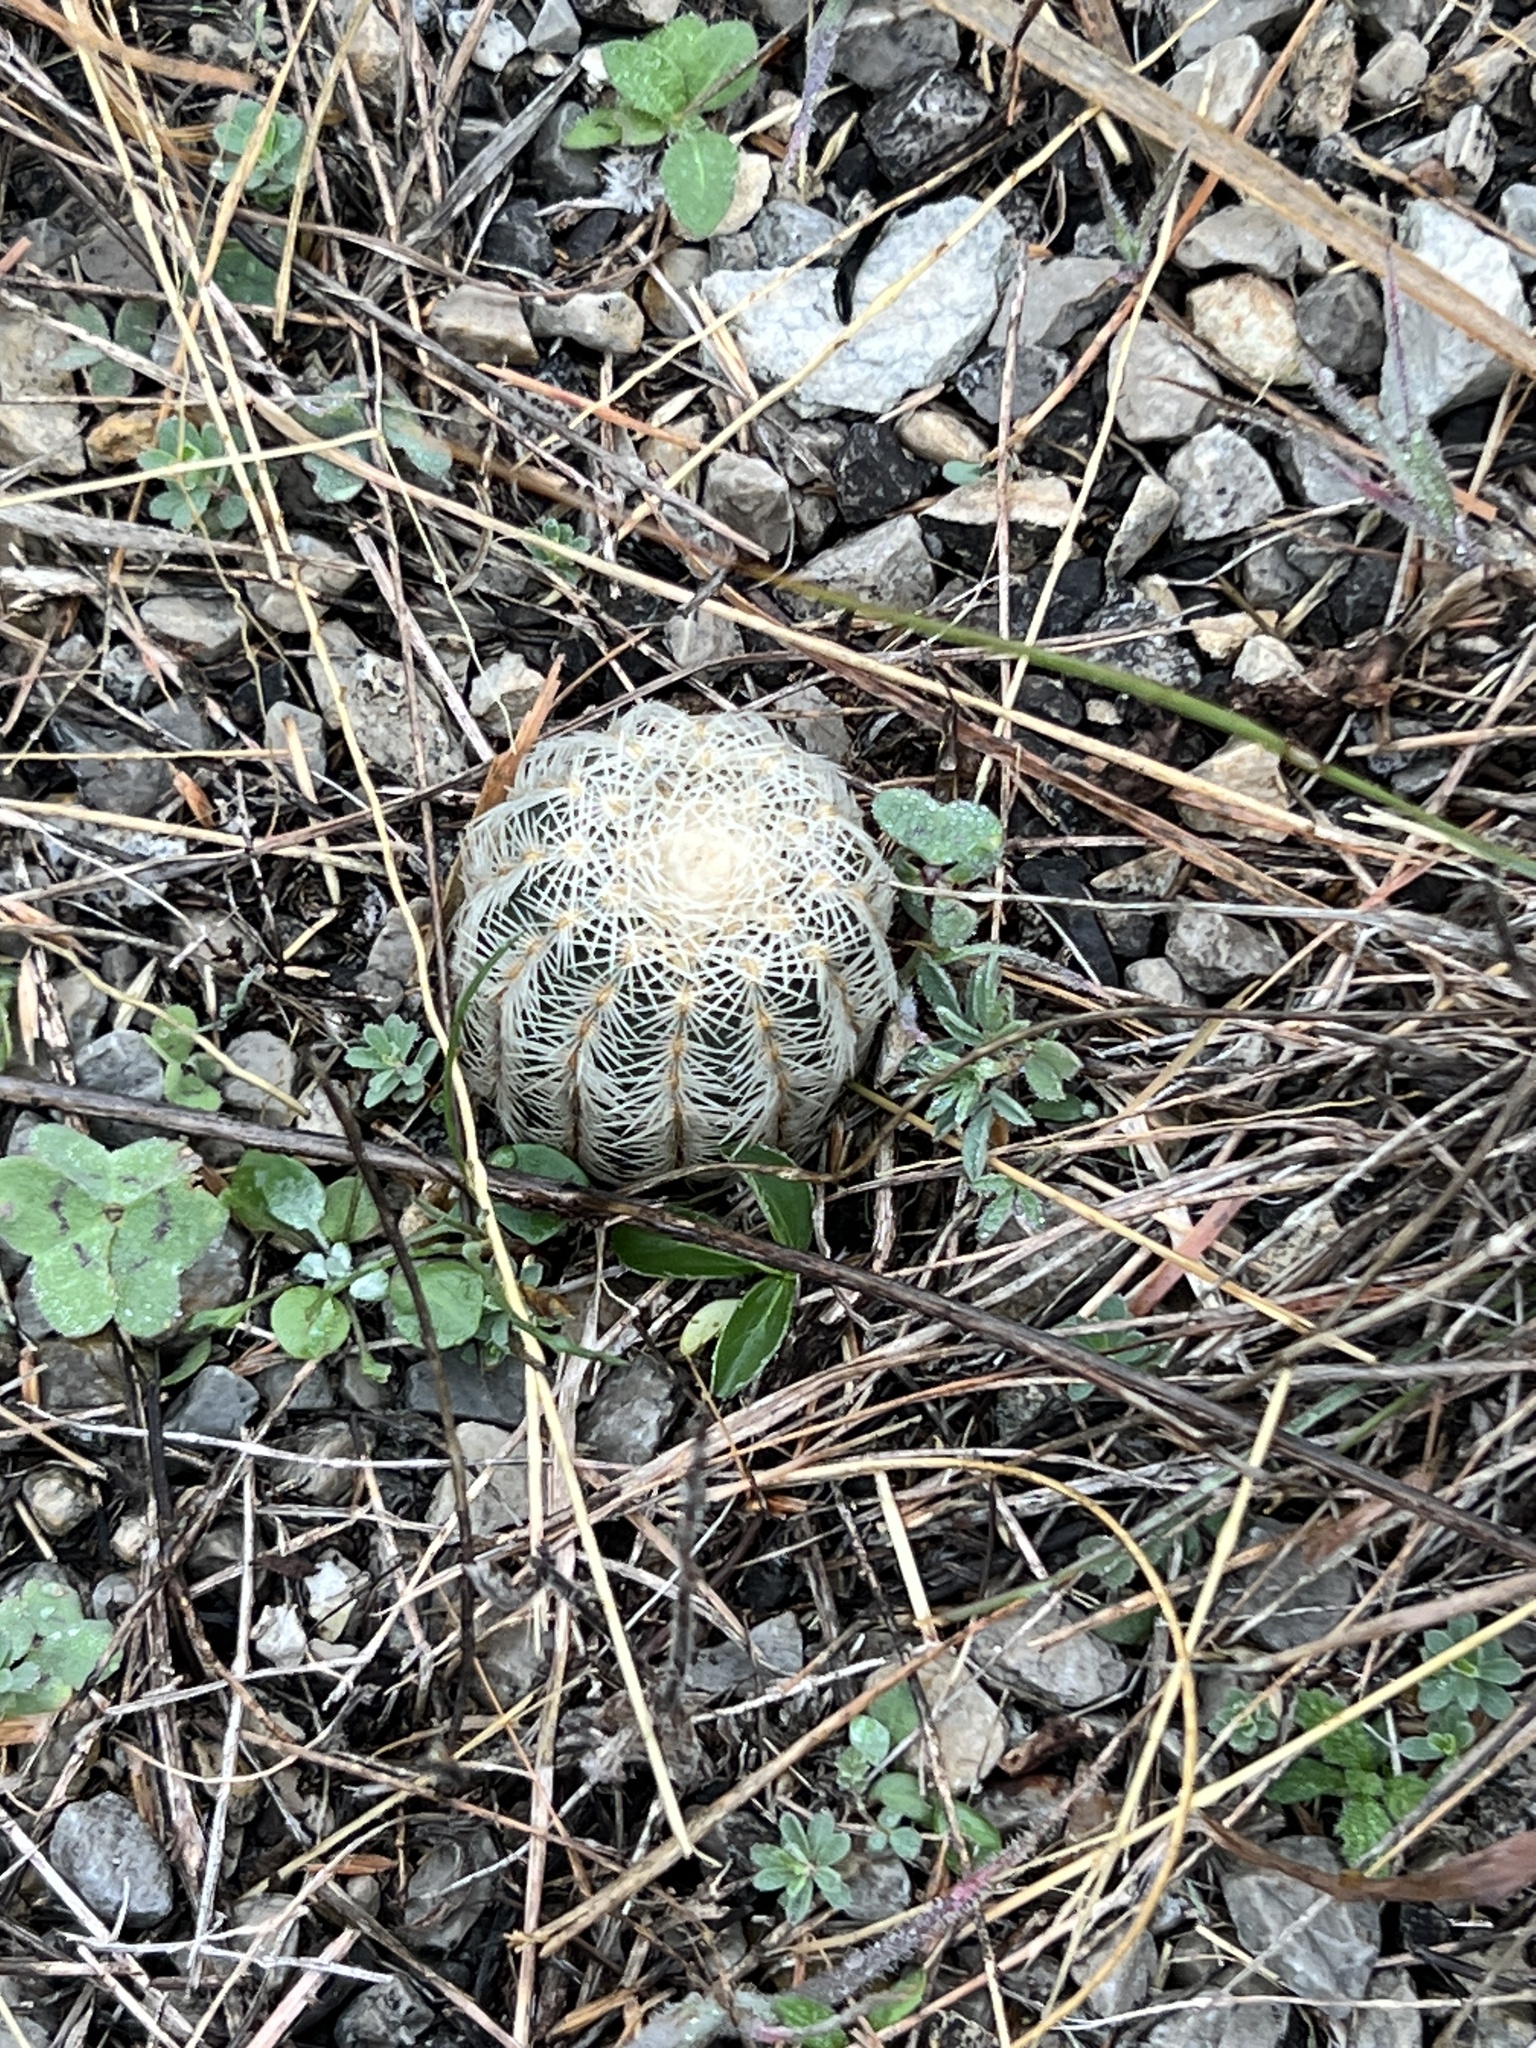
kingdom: Plantae
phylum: Tracheophyta
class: Magnoliopsida
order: Caryophyllales
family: Cactaceae
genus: Echinocereus
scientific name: Echinocereus reichenbachii
